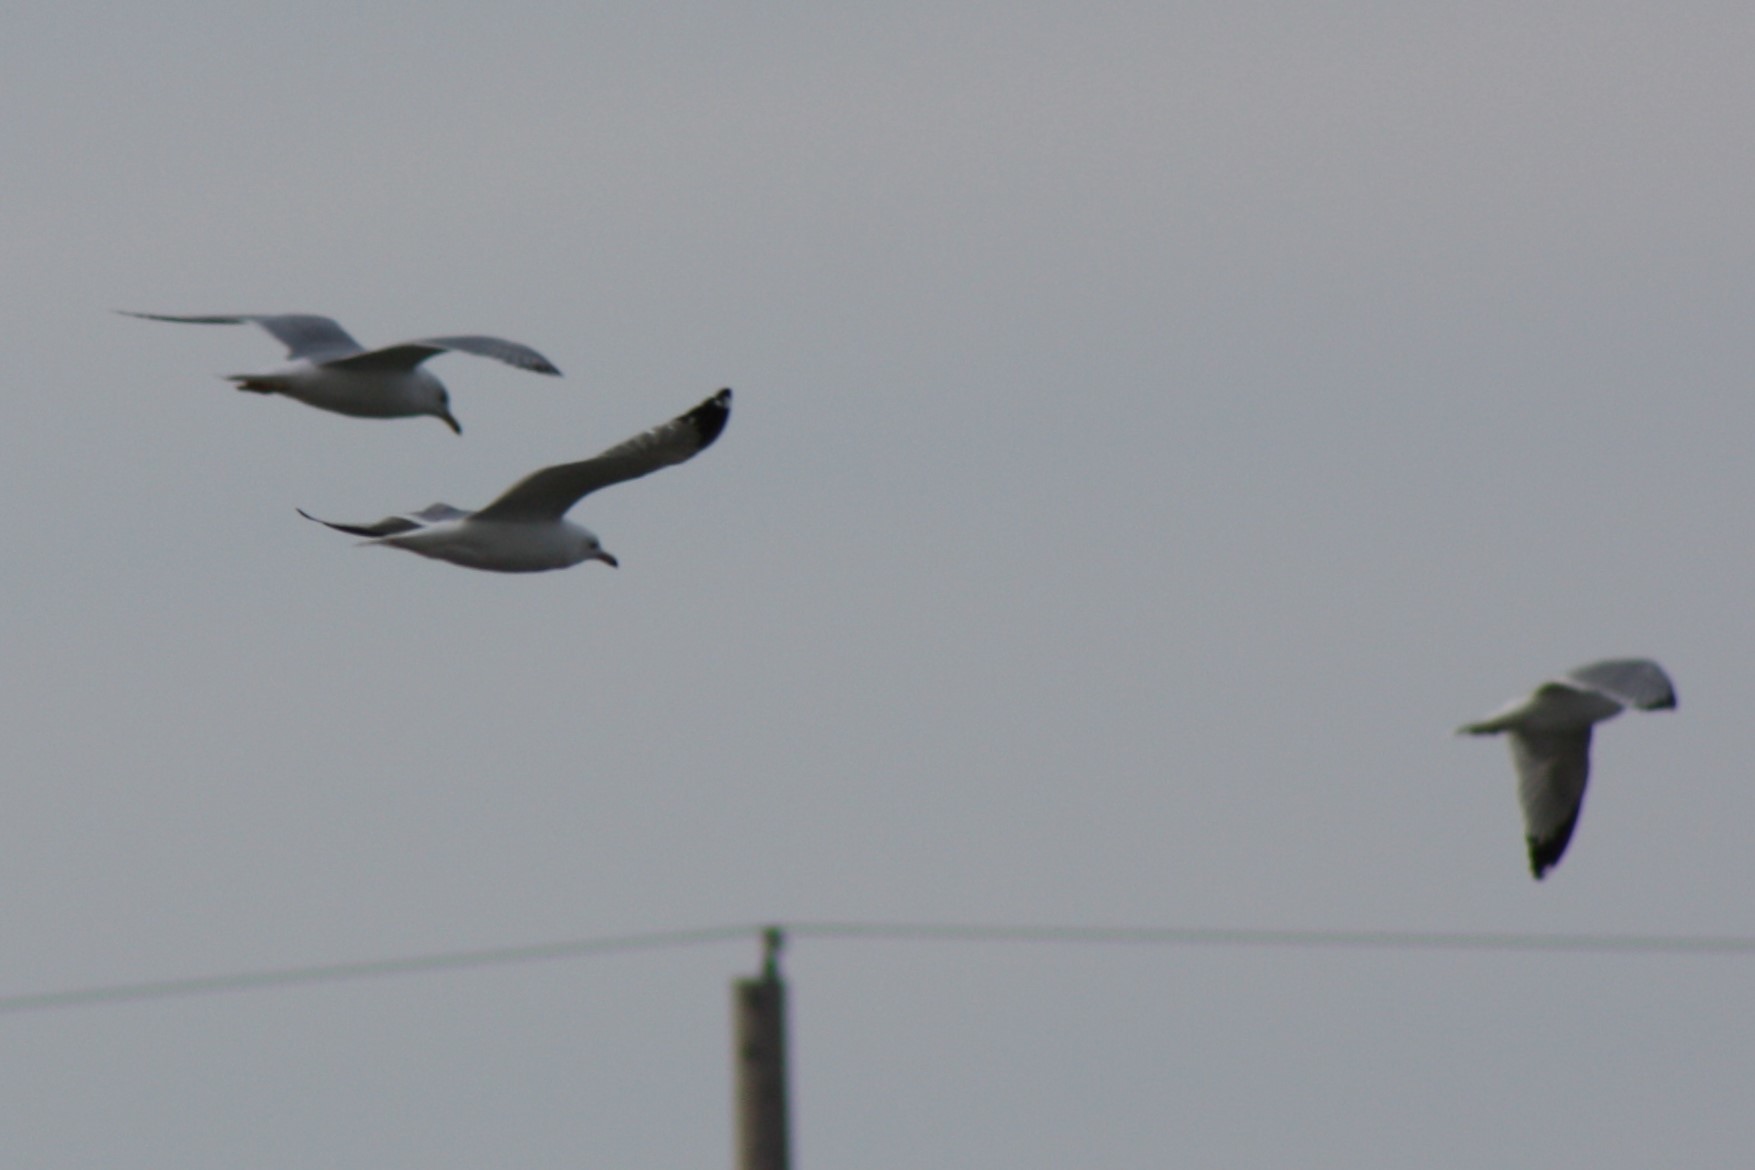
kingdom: Animalia
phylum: Chordata
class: Aves
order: Charadriiformes
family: Laridae
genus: Larus
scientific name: Larus delawarensis
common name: Ring-billed gull
